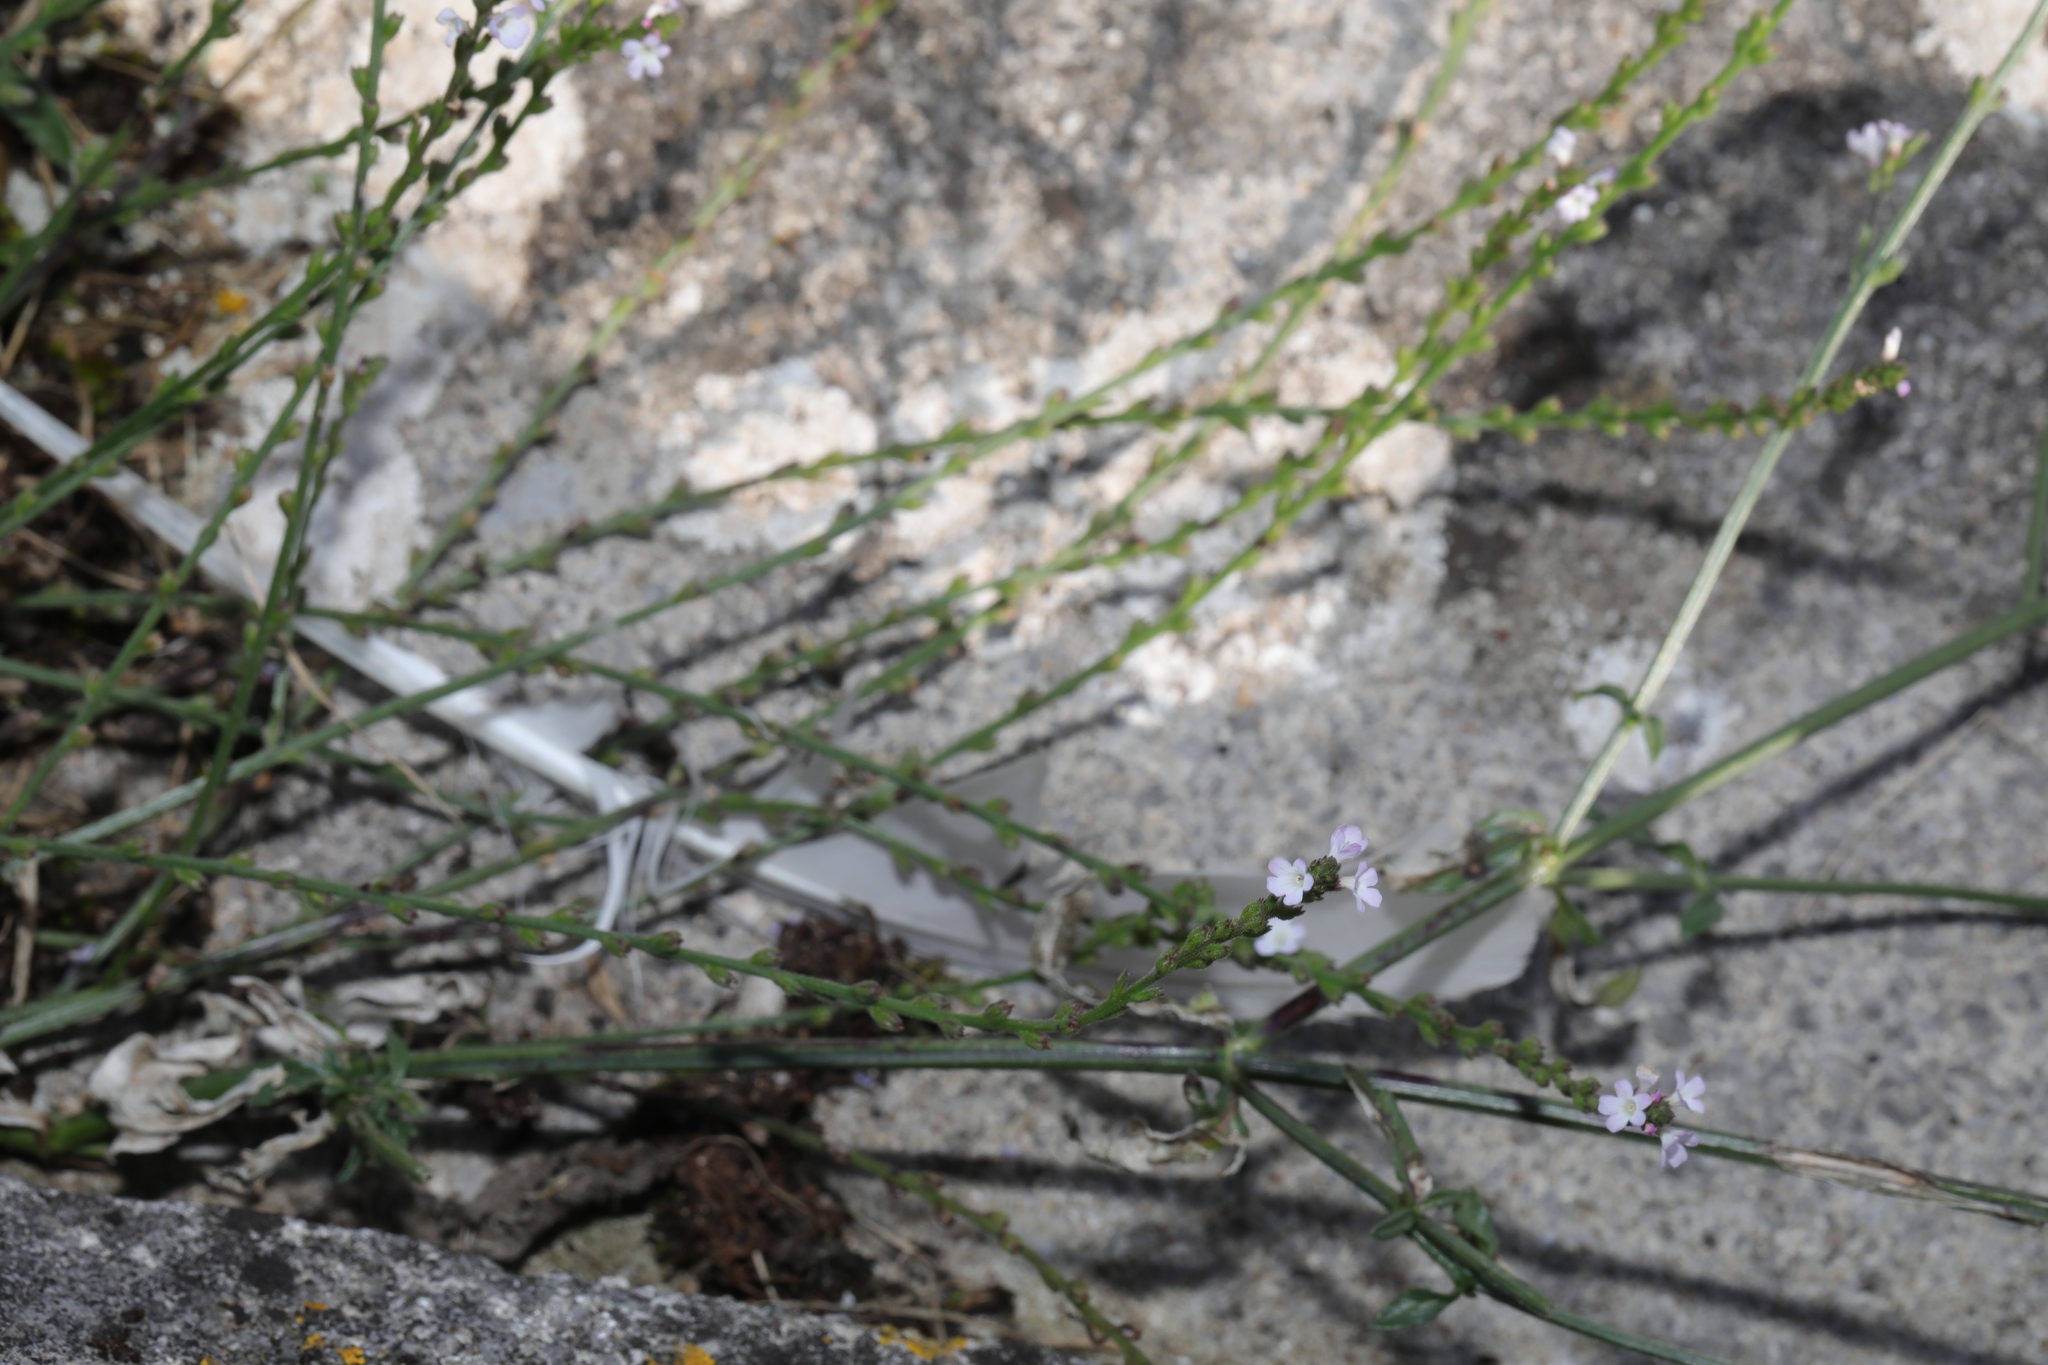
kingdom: Plantae
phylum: Tracheophyta
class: Magnoliopsida
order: Lamiales
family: Verbenaceae
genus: Verbena
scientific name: Verbena officinalis
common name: Vervain
